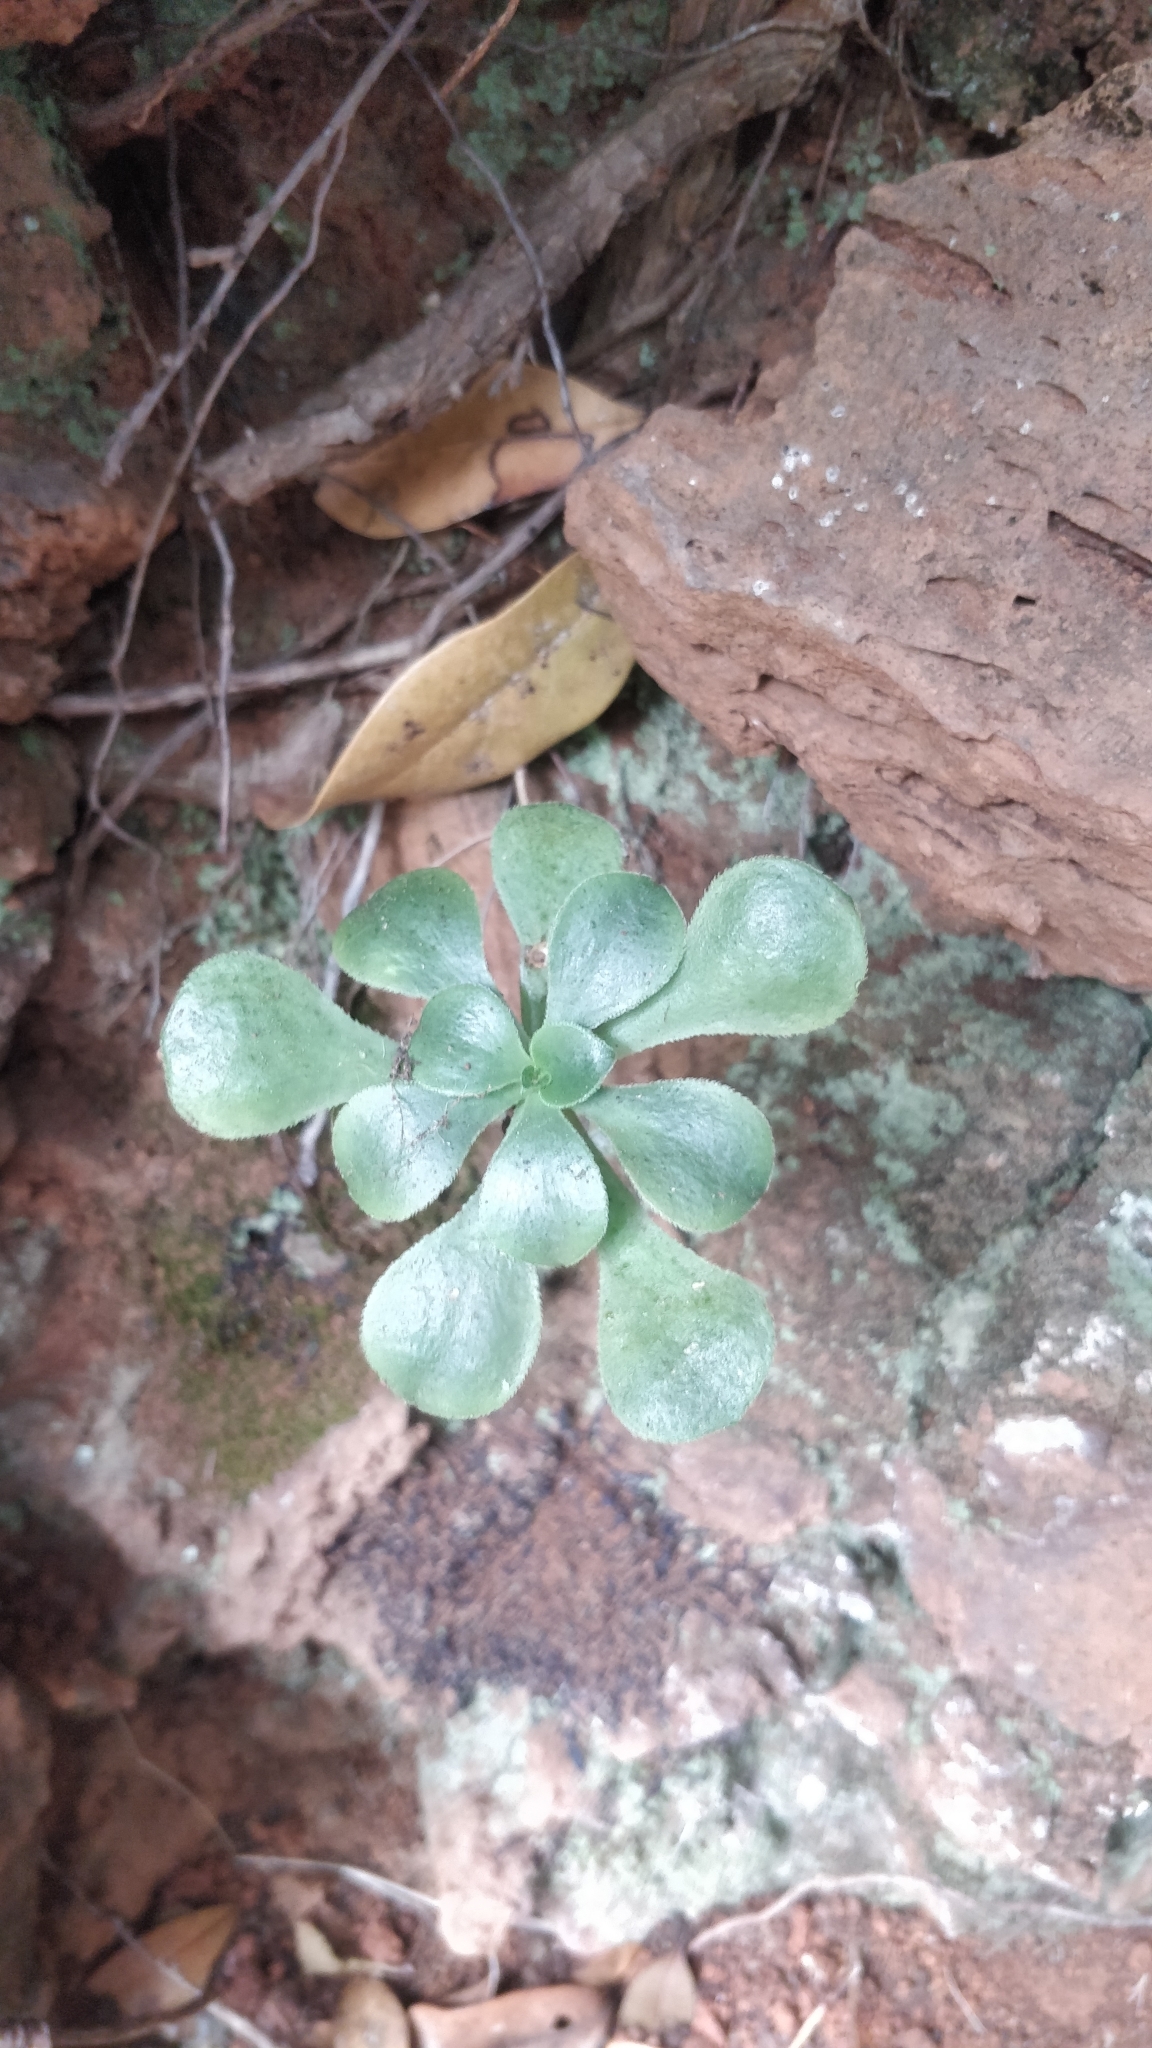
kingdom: Plantae
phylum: Tracheophyta
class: Magnoliopsida
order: Saxifragales
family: Crassulaceae
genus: Aeonium
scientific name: Aeonium glutinosum
